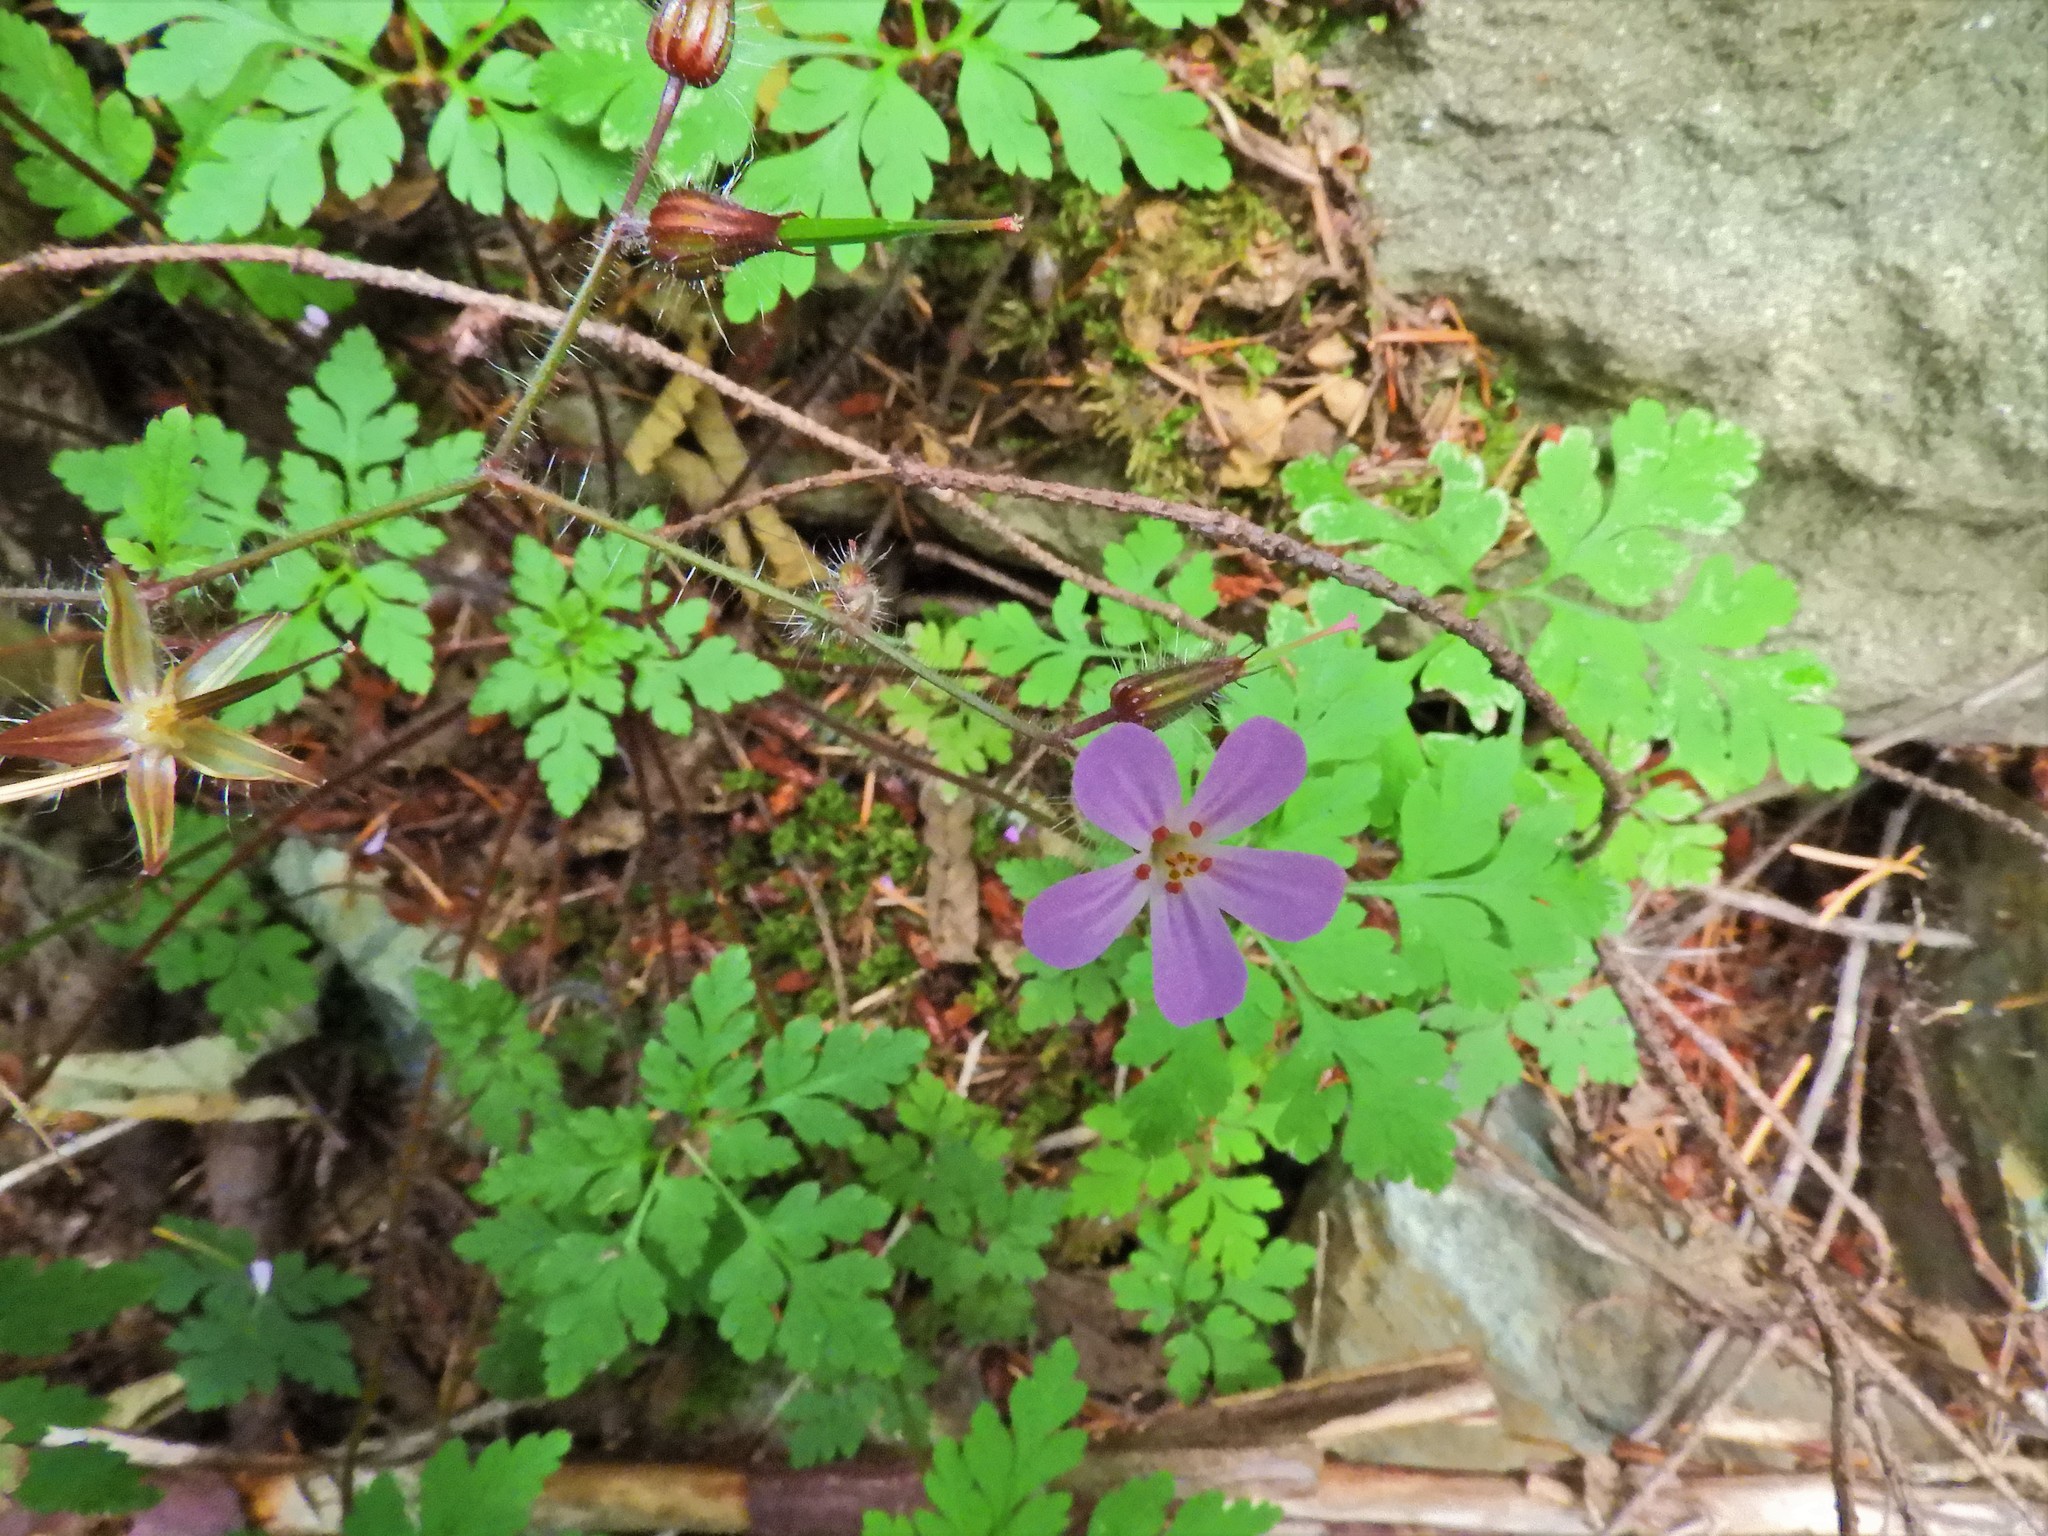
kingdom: Plantae
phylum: Tracheophyta
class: Magnoliopsida
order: Geraniales
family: Geraniaceae
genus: Geranium
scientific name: Geranium robertianum
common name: Herb-robert
